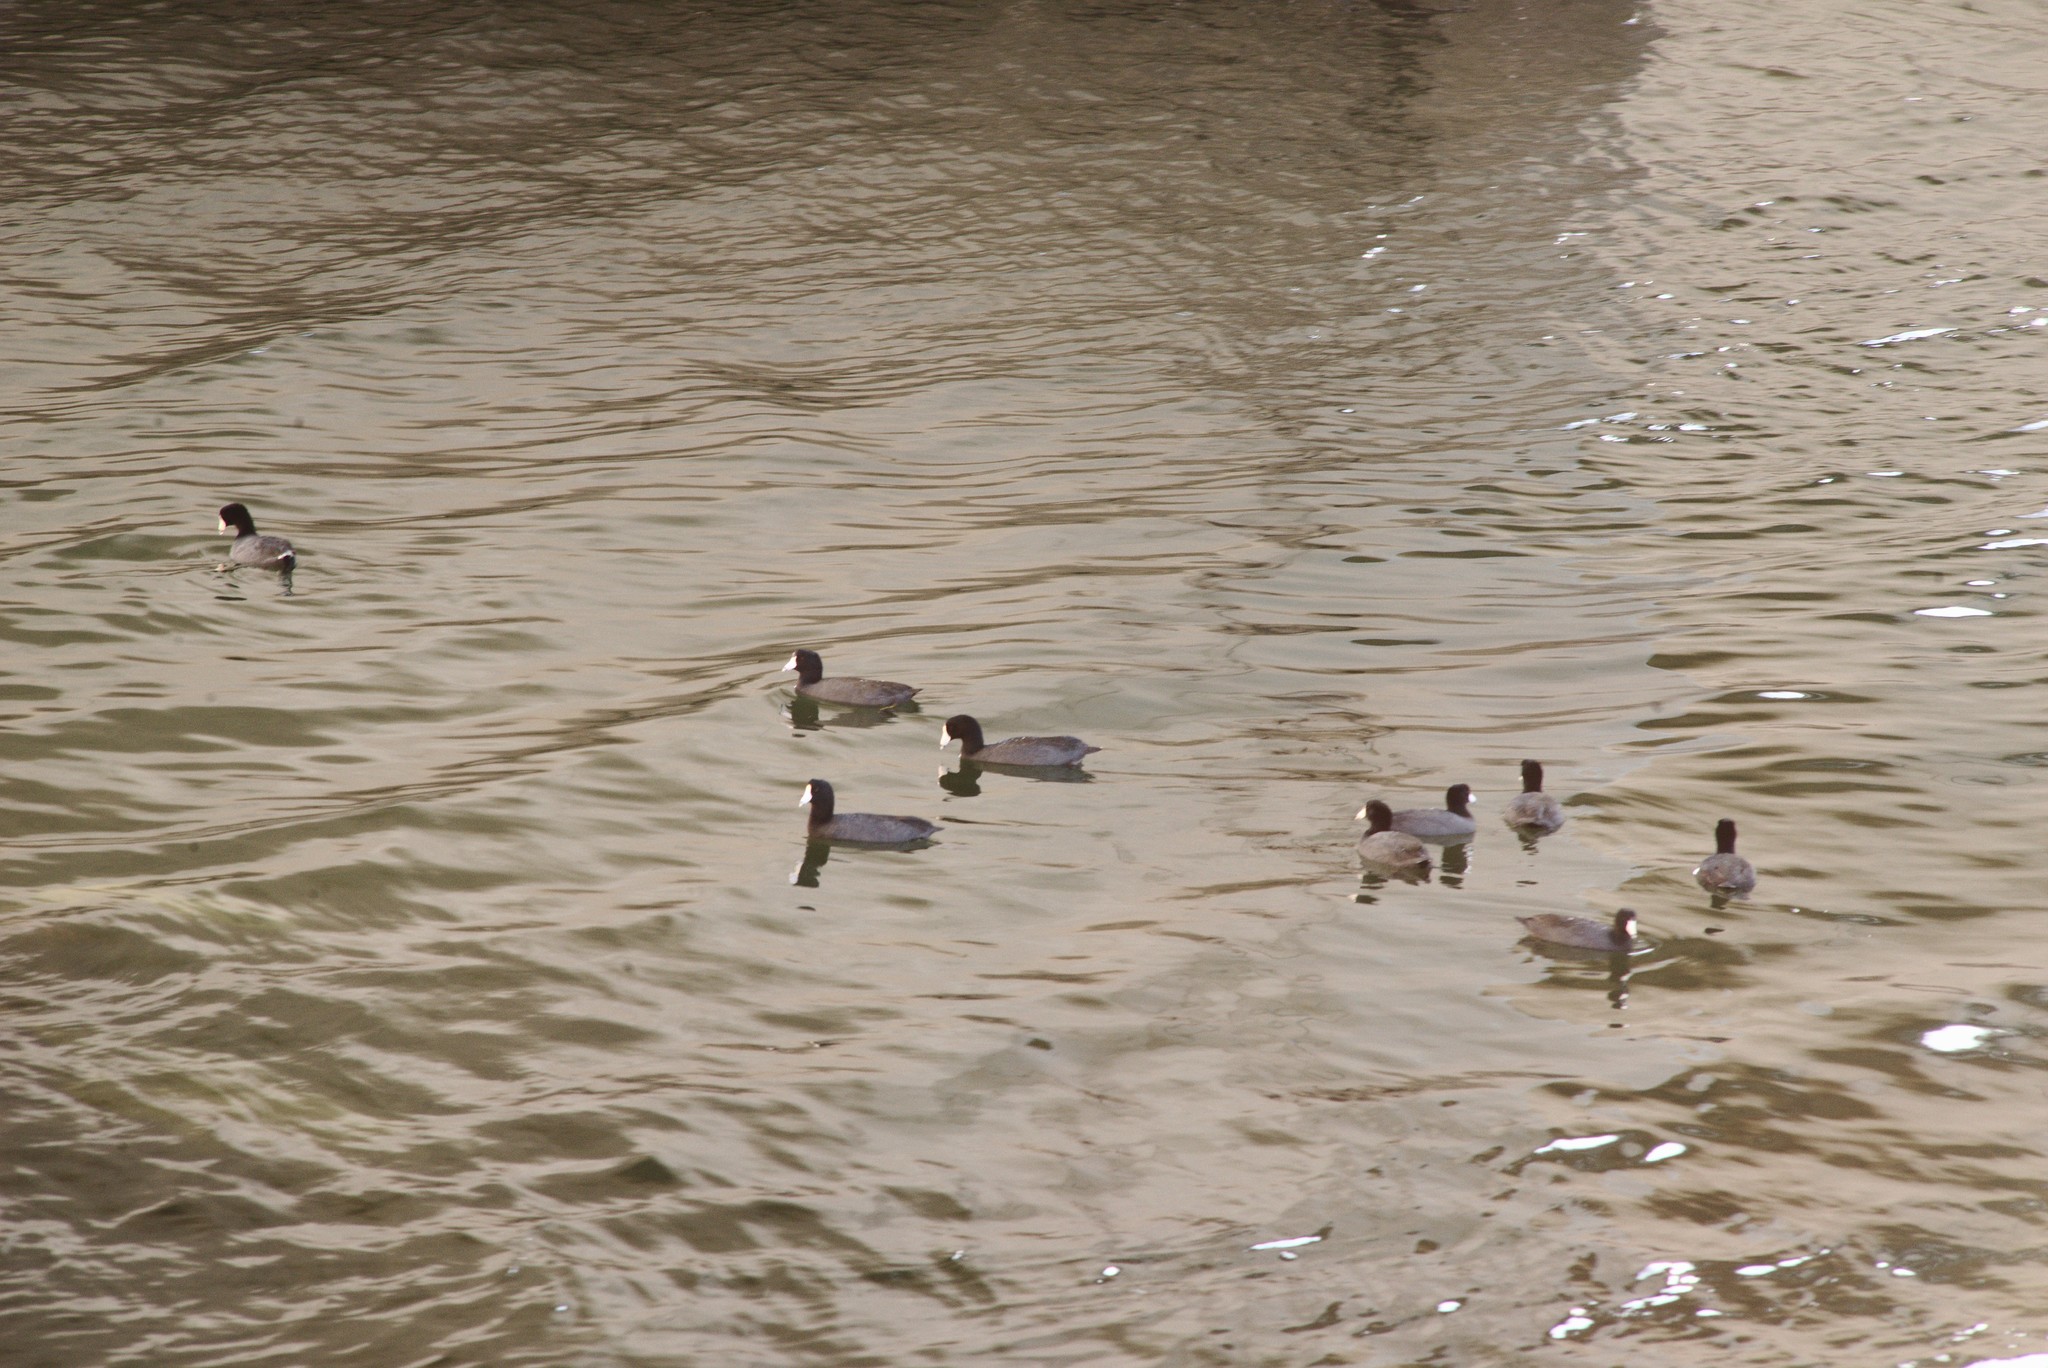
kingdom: Animalia
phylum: Chordata
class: Aves
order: Gruiformes
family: Rallidae
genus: Fulica
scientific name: Fulica americana
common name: American coot
